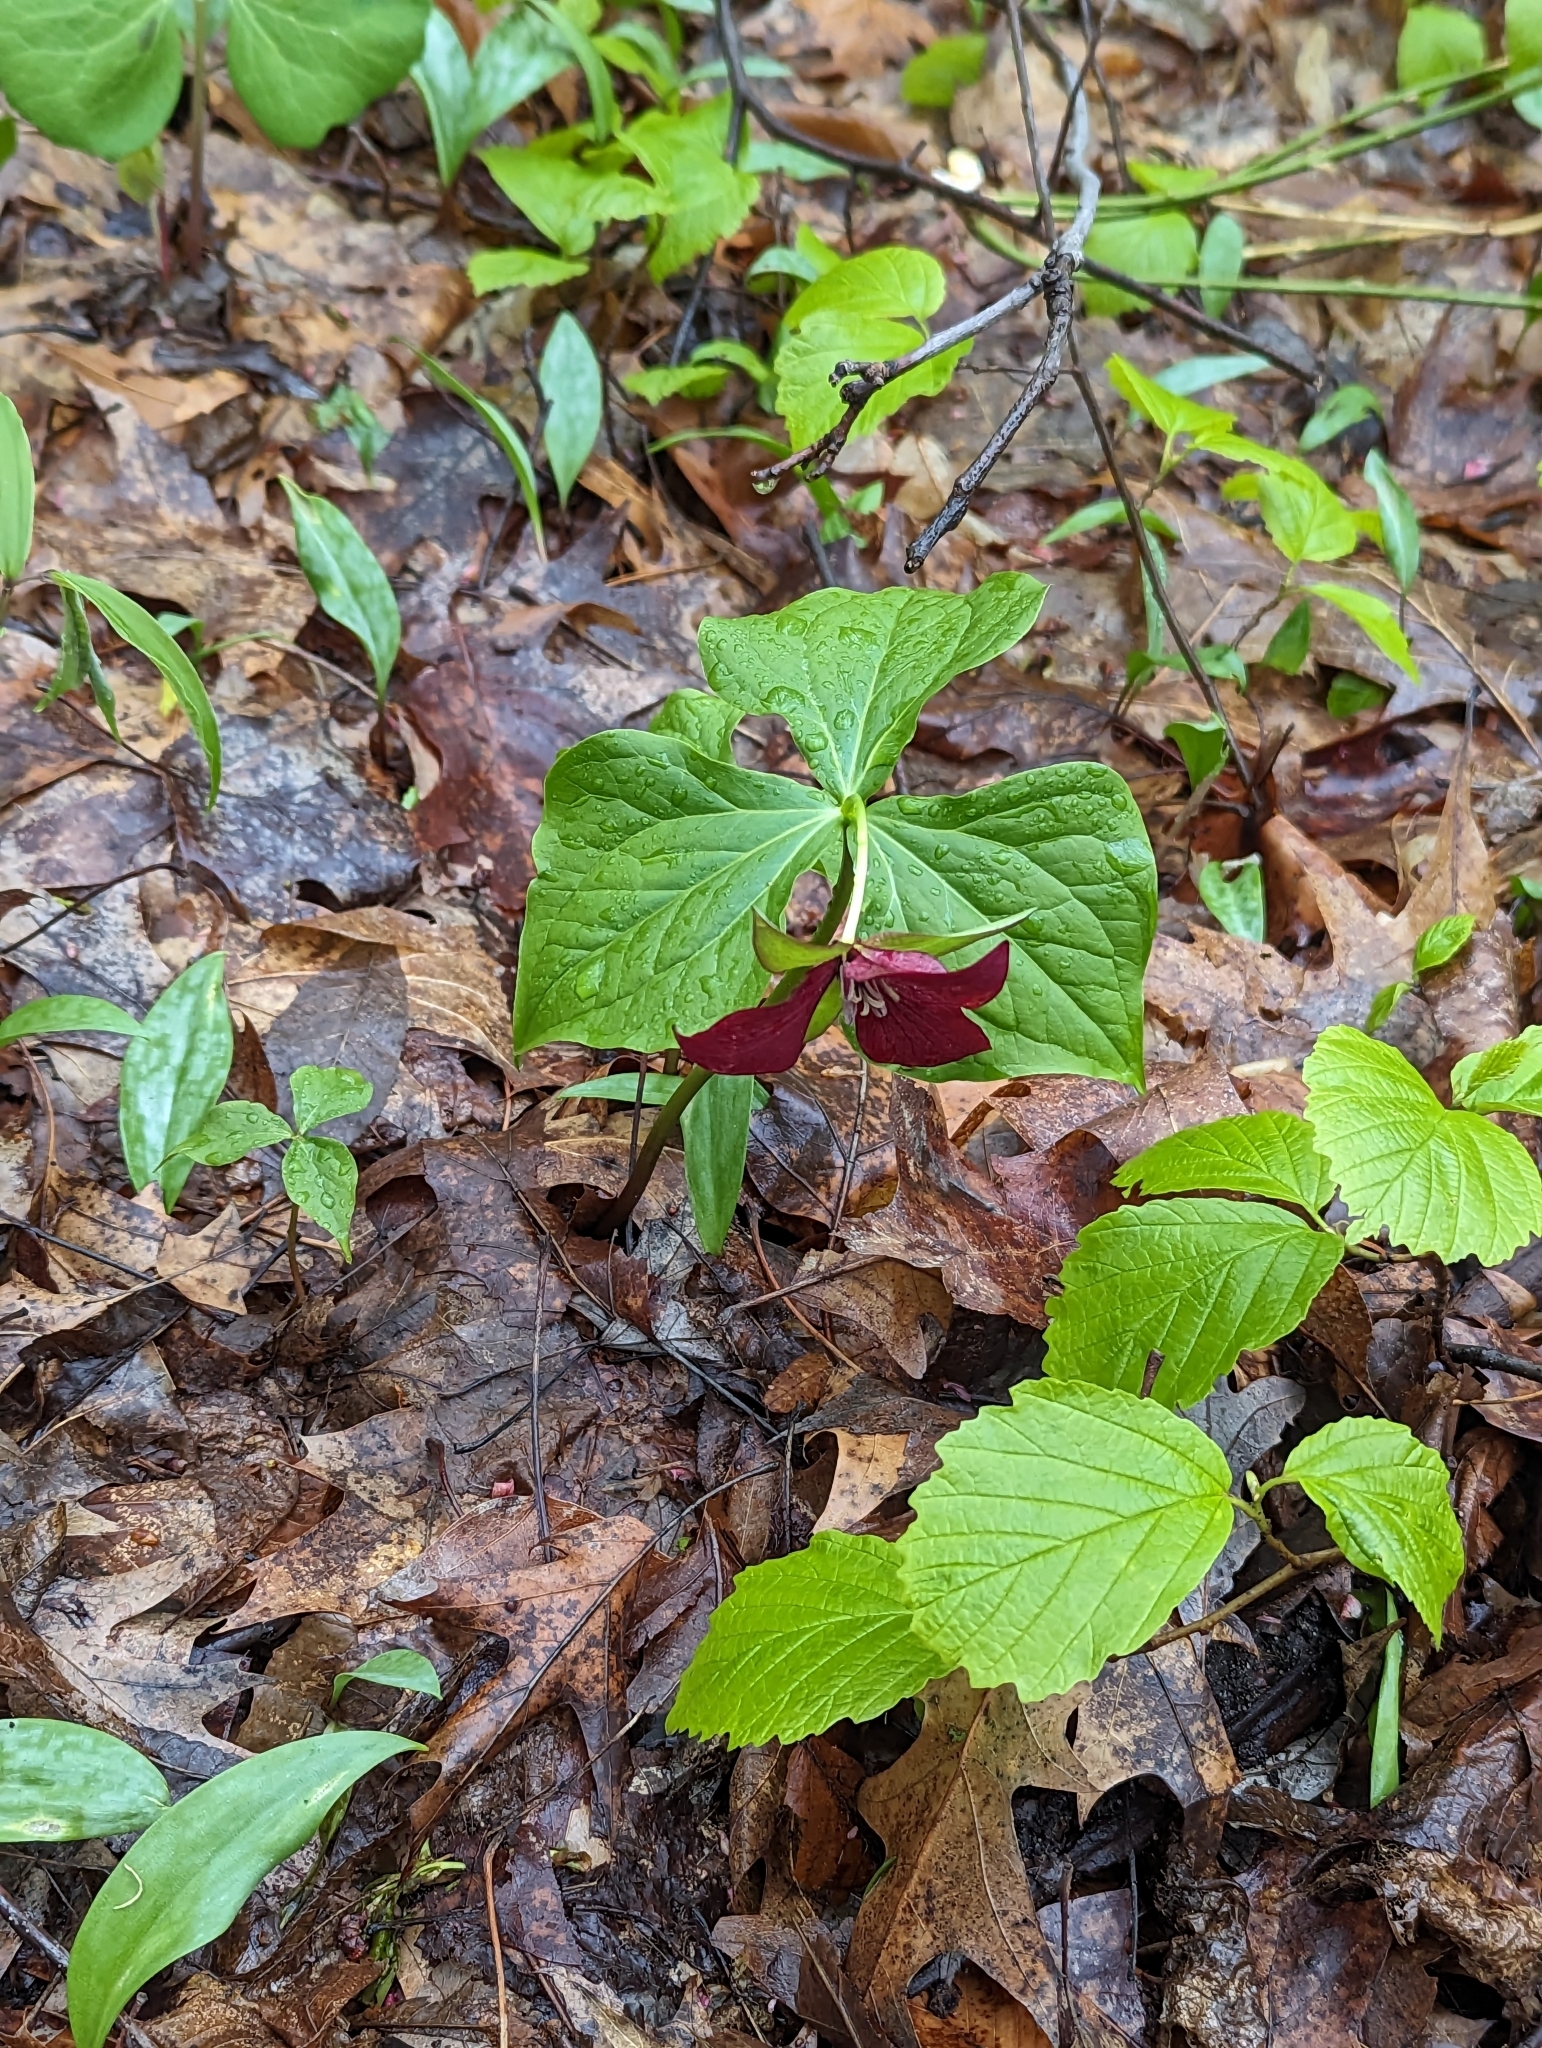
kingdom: Plantae
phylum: Tracheophyta
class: Liliopsida
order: Liliales
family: Melanthiaceae
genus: Trillium
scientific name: Trillium erectum
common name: Purple trillium
